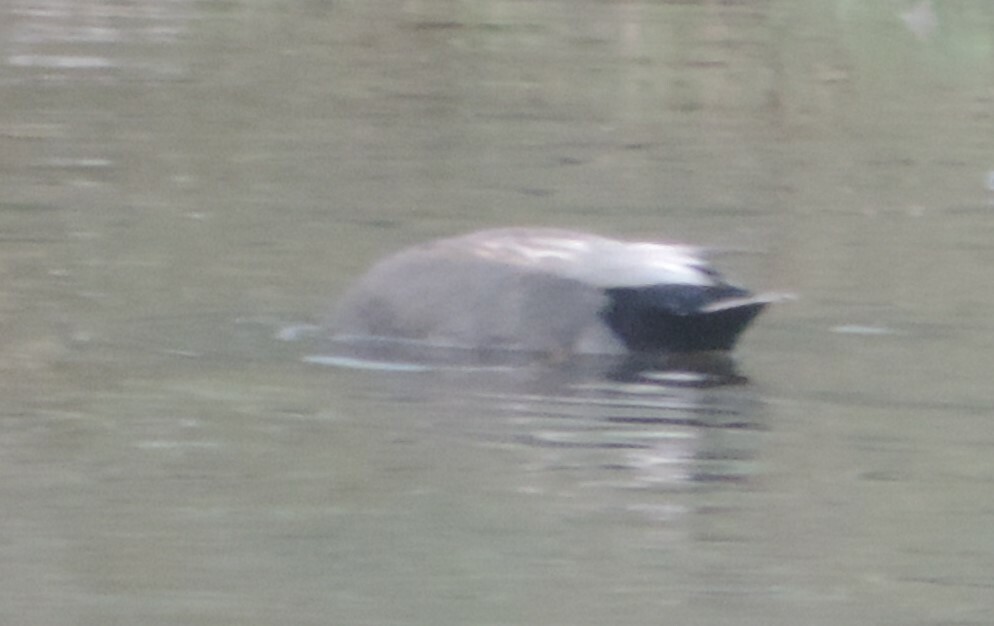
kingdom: Animalia
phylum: Chordata
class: Aves
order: Anseriformes
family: Anatidae
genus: Mareca
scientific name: Mareca strepera
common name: Gadwall
